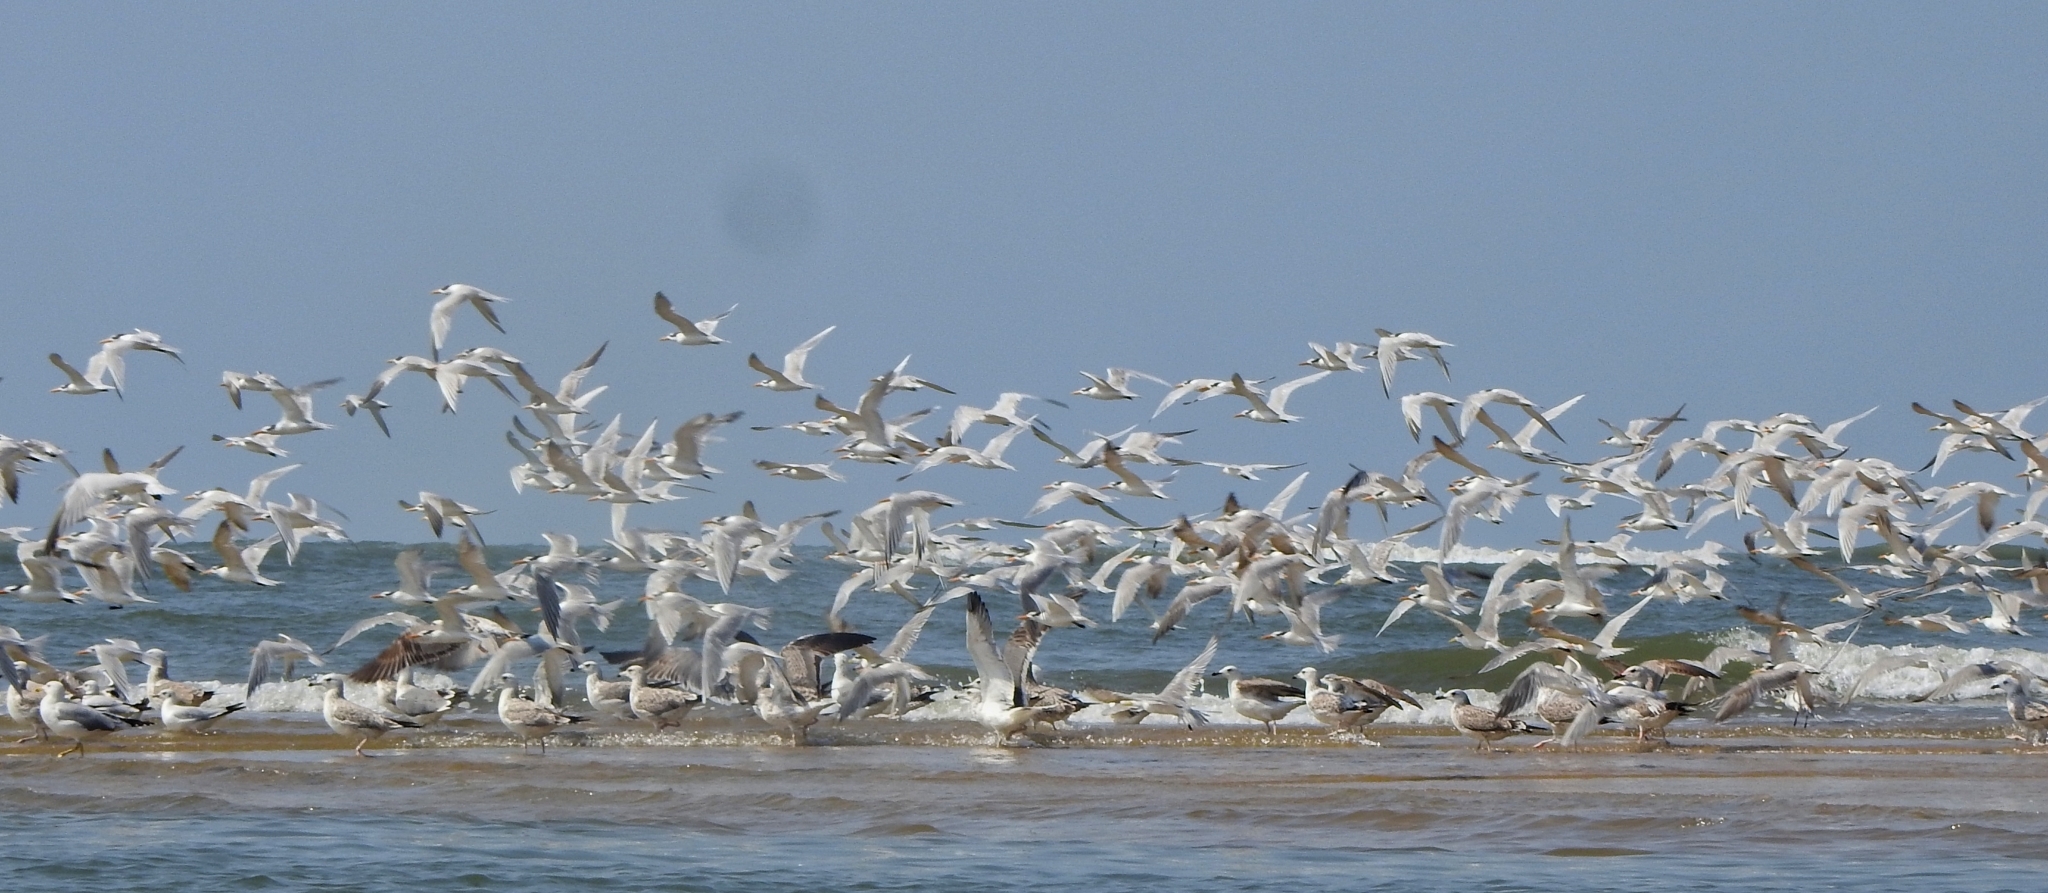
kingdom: Animalia
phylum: Chordata
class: Aves
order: Charadriiformes
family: Laridae
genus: Thalasseus
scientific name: Thalasseus bengalensis
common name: Lesser crested tern
